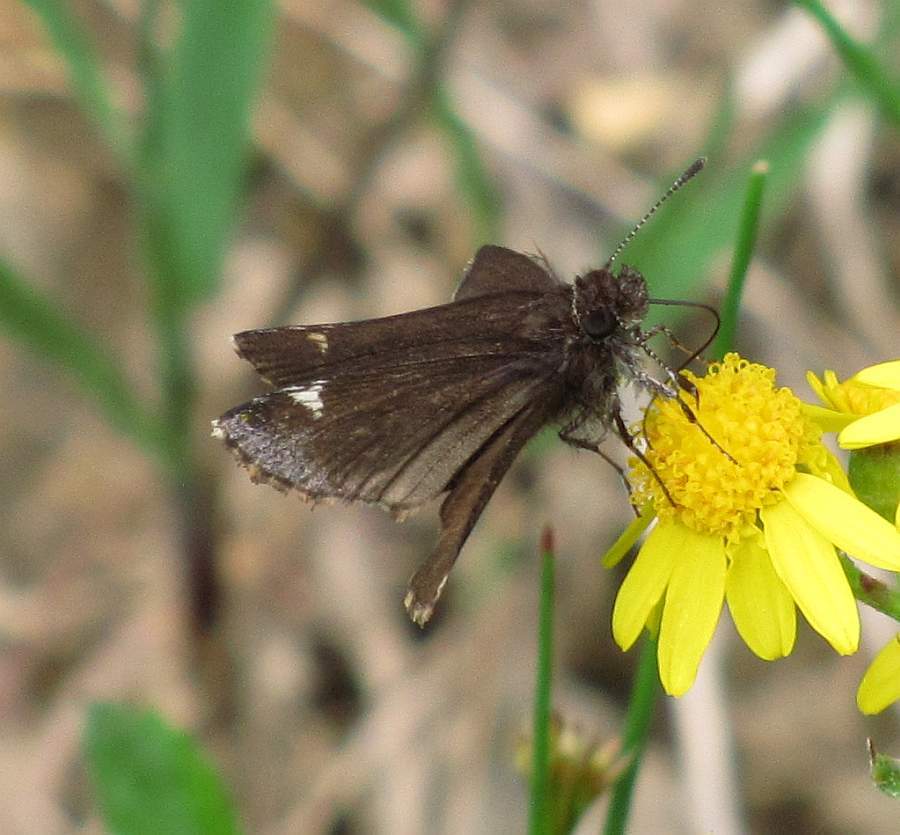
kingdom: Animalia
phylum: Arthropoda
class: Insecta
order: Lepidoptera
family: Hesperiidae
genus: Mastor
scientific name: Mastor vialis
